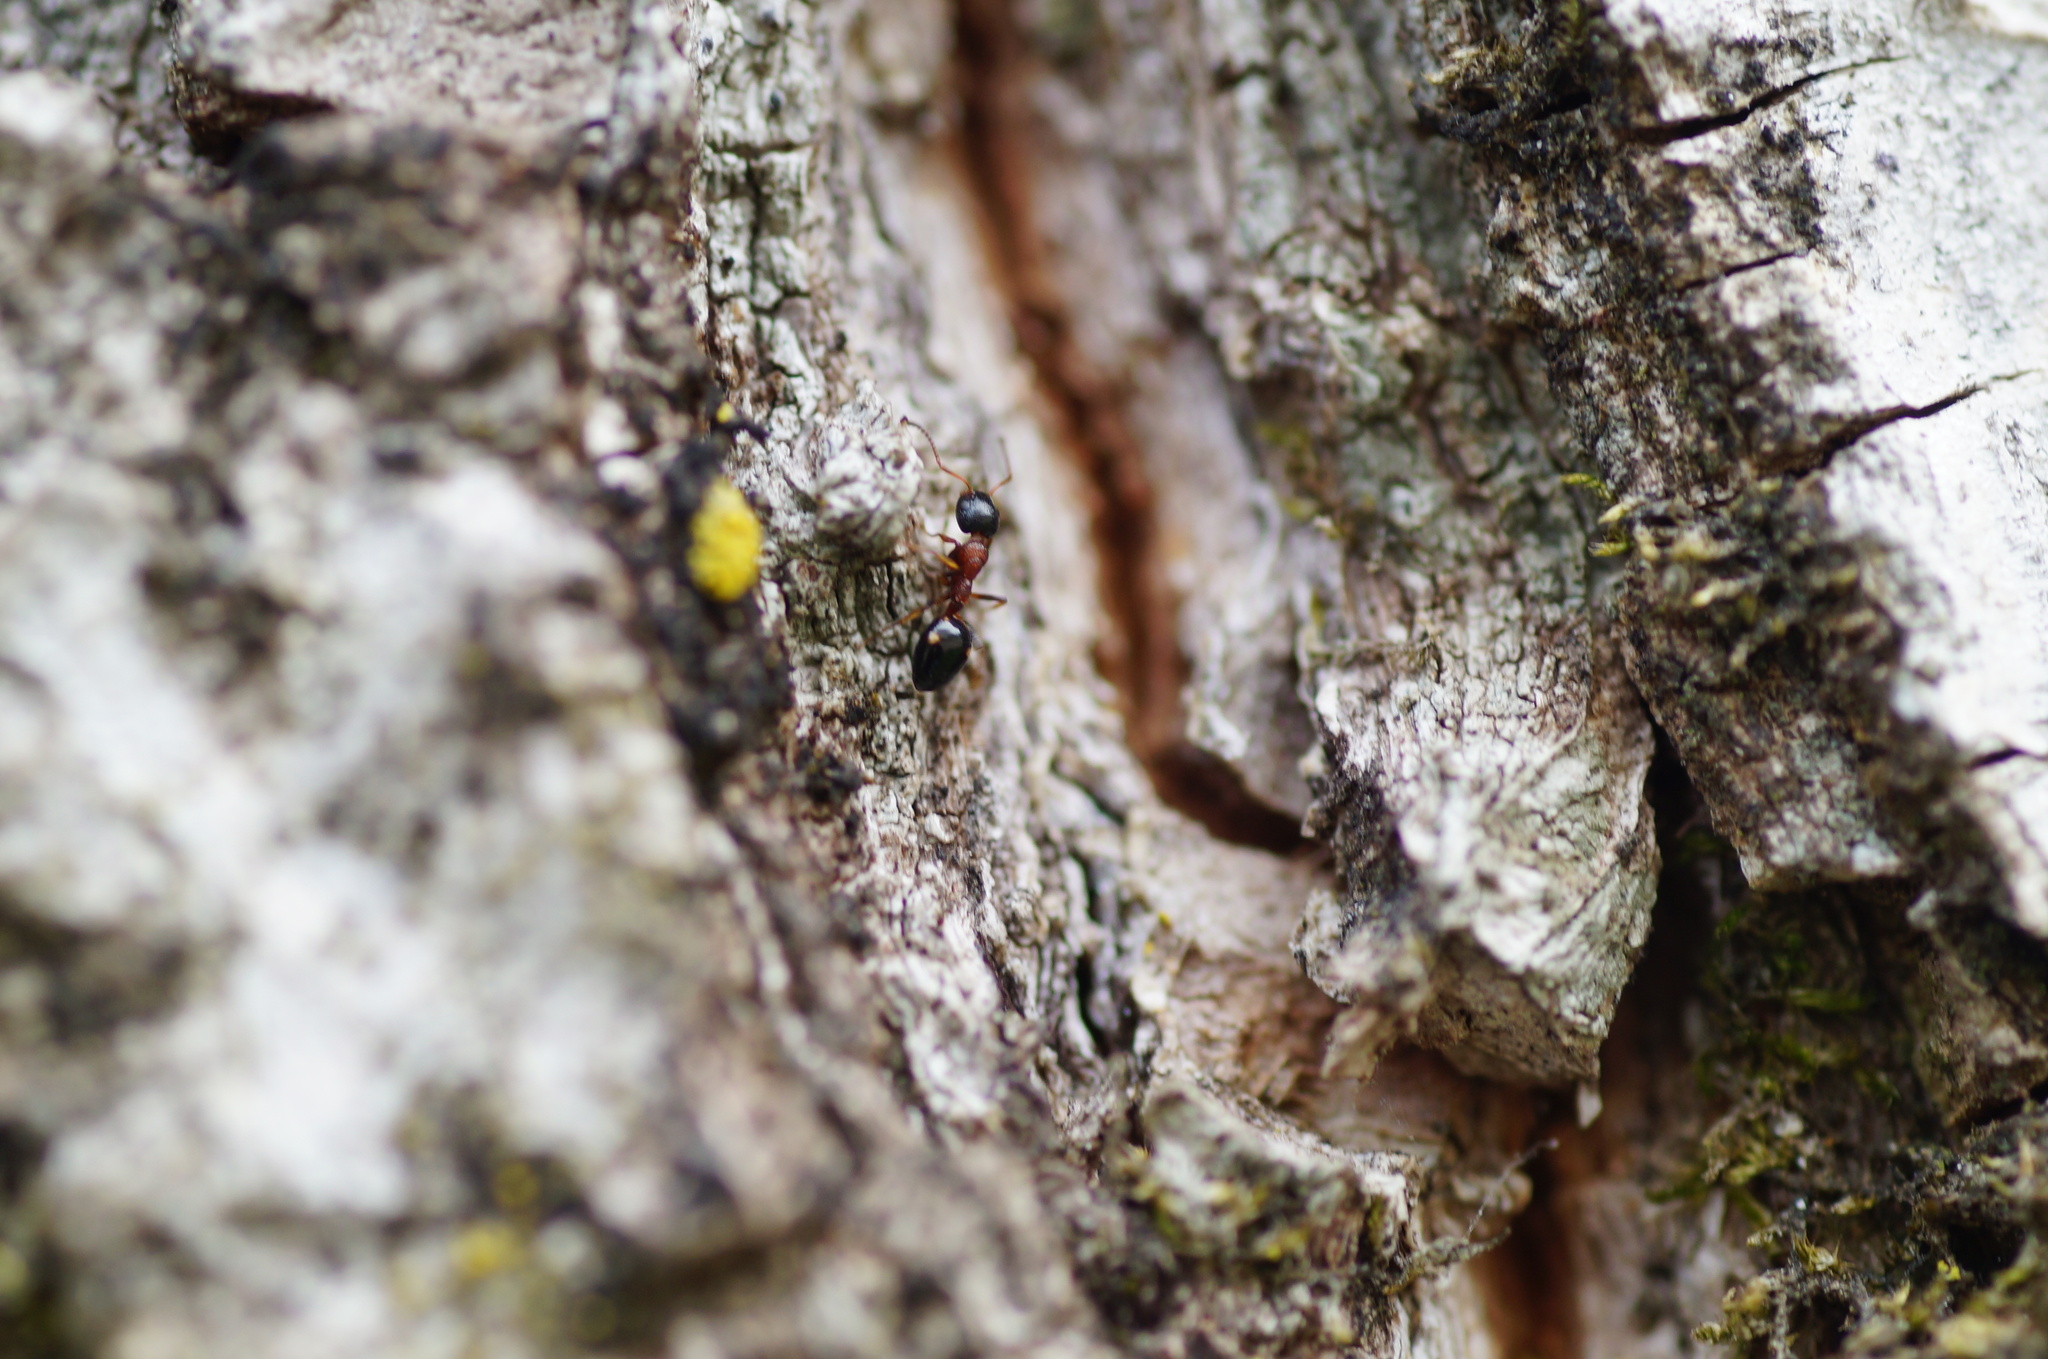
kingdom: Animalia
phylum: Arthropoda
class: Insecta
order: Hymenoptera
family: Formicidae
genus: Dolichoderus
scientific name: Dolichoderus quadripunctatus
